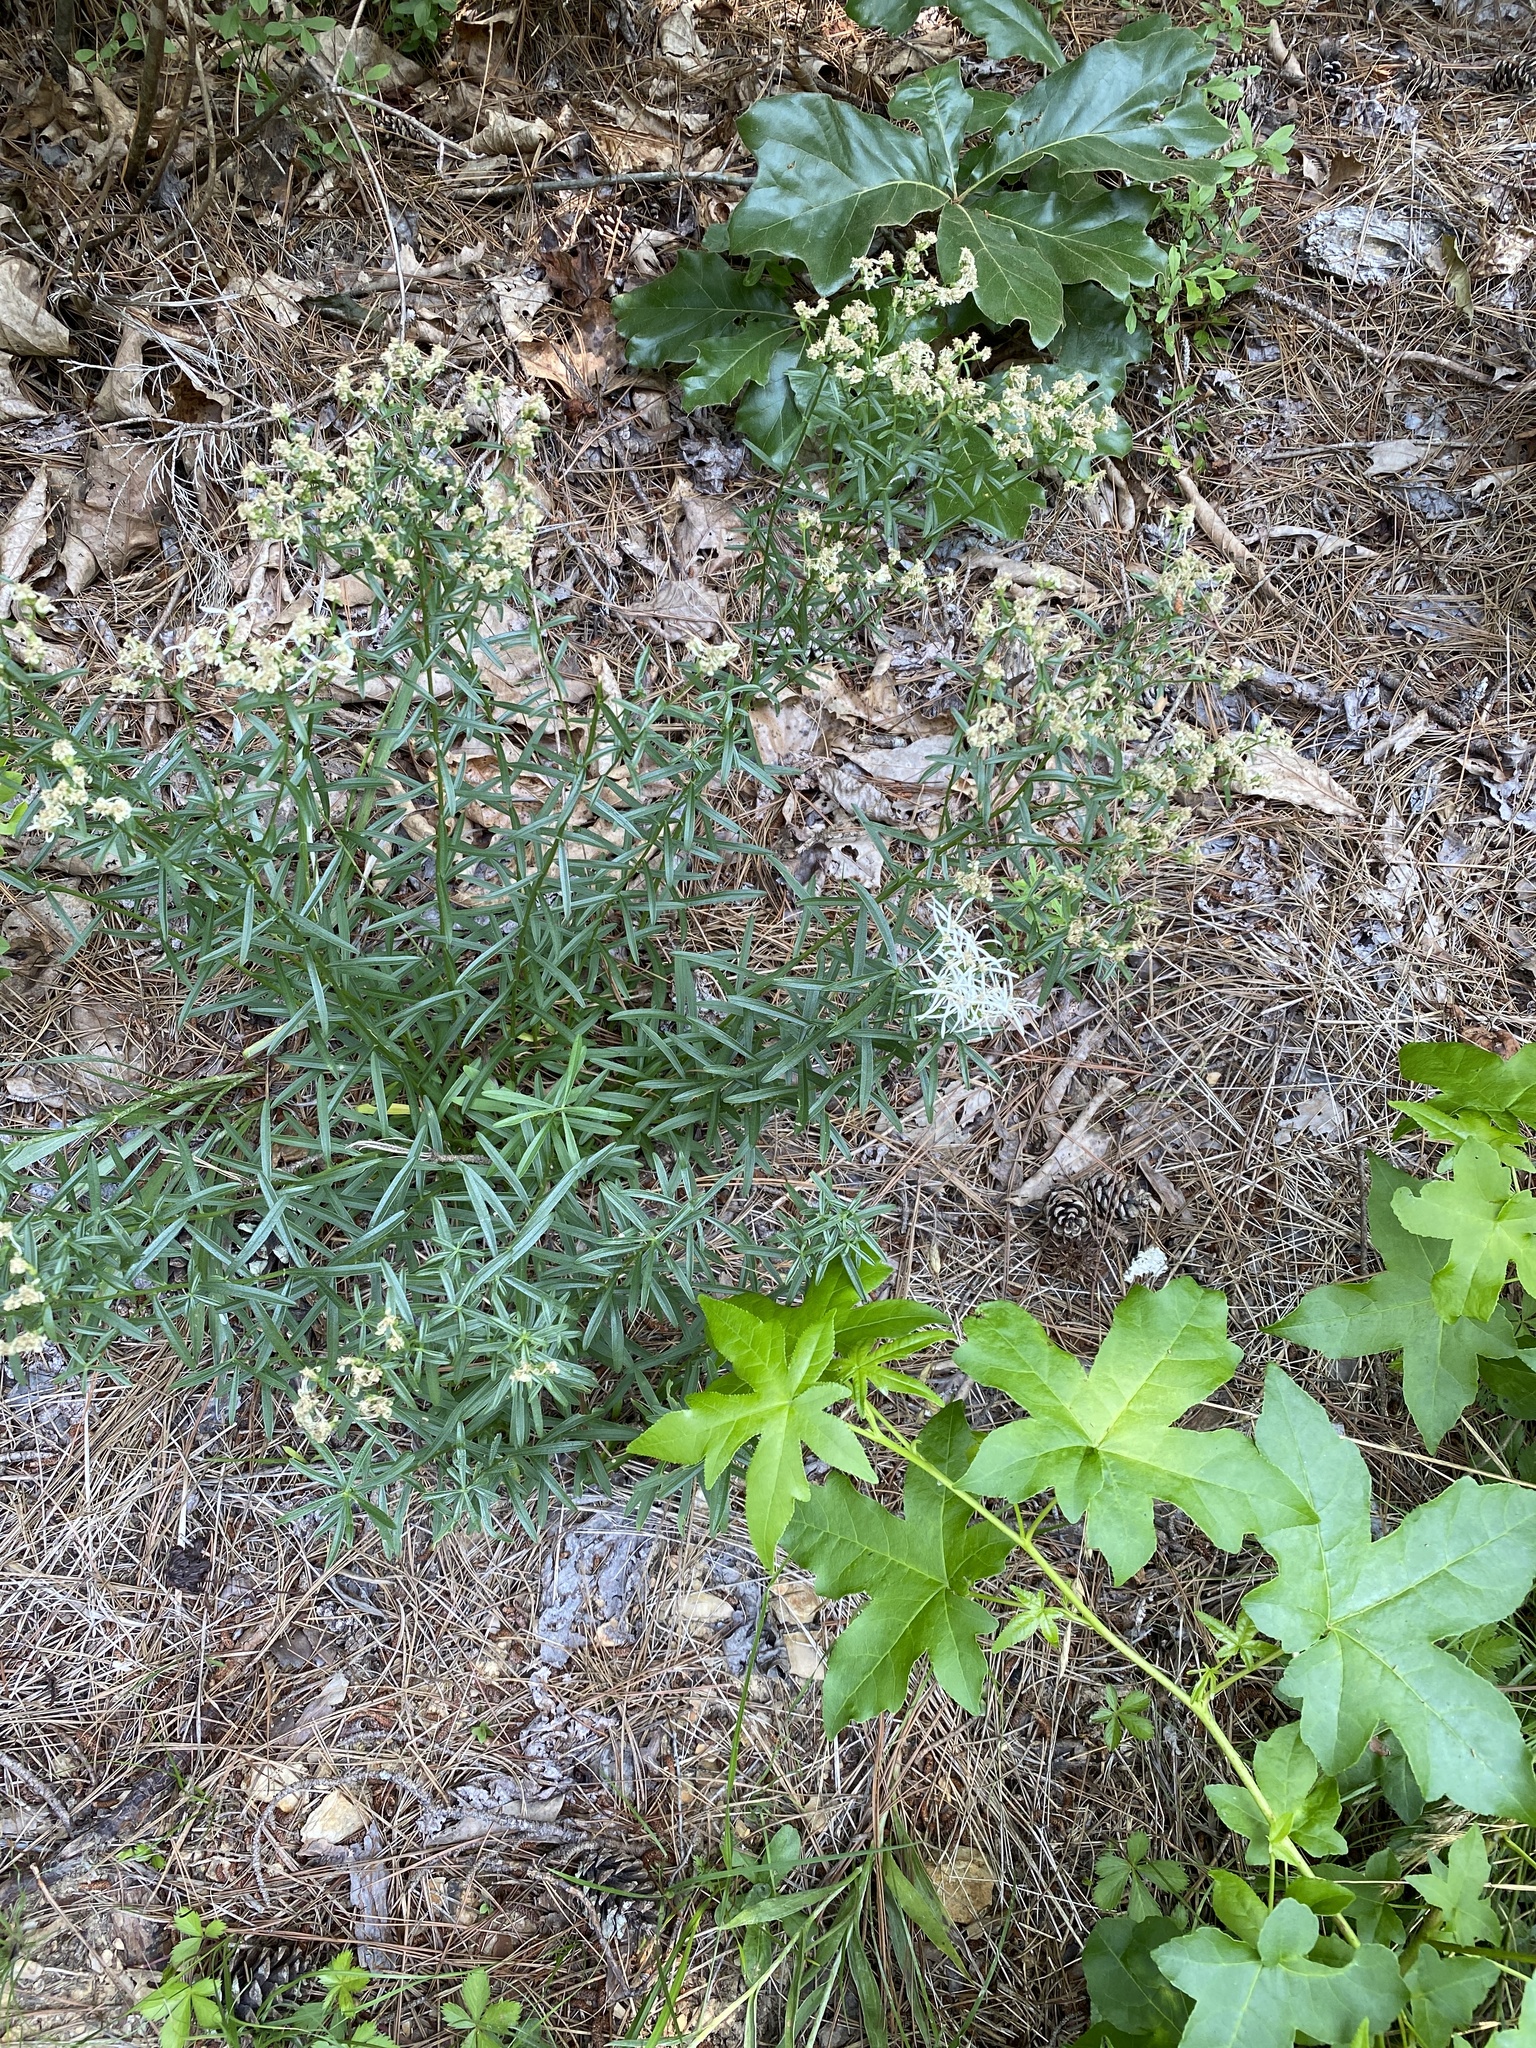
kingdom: Plantae
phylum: Tracheophyta
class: Magnoliopsida
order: Asterales
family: Asteraceae
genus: Sericocarpus
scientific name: Sericocarpus linifolius
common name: Narrow-leaf aster
